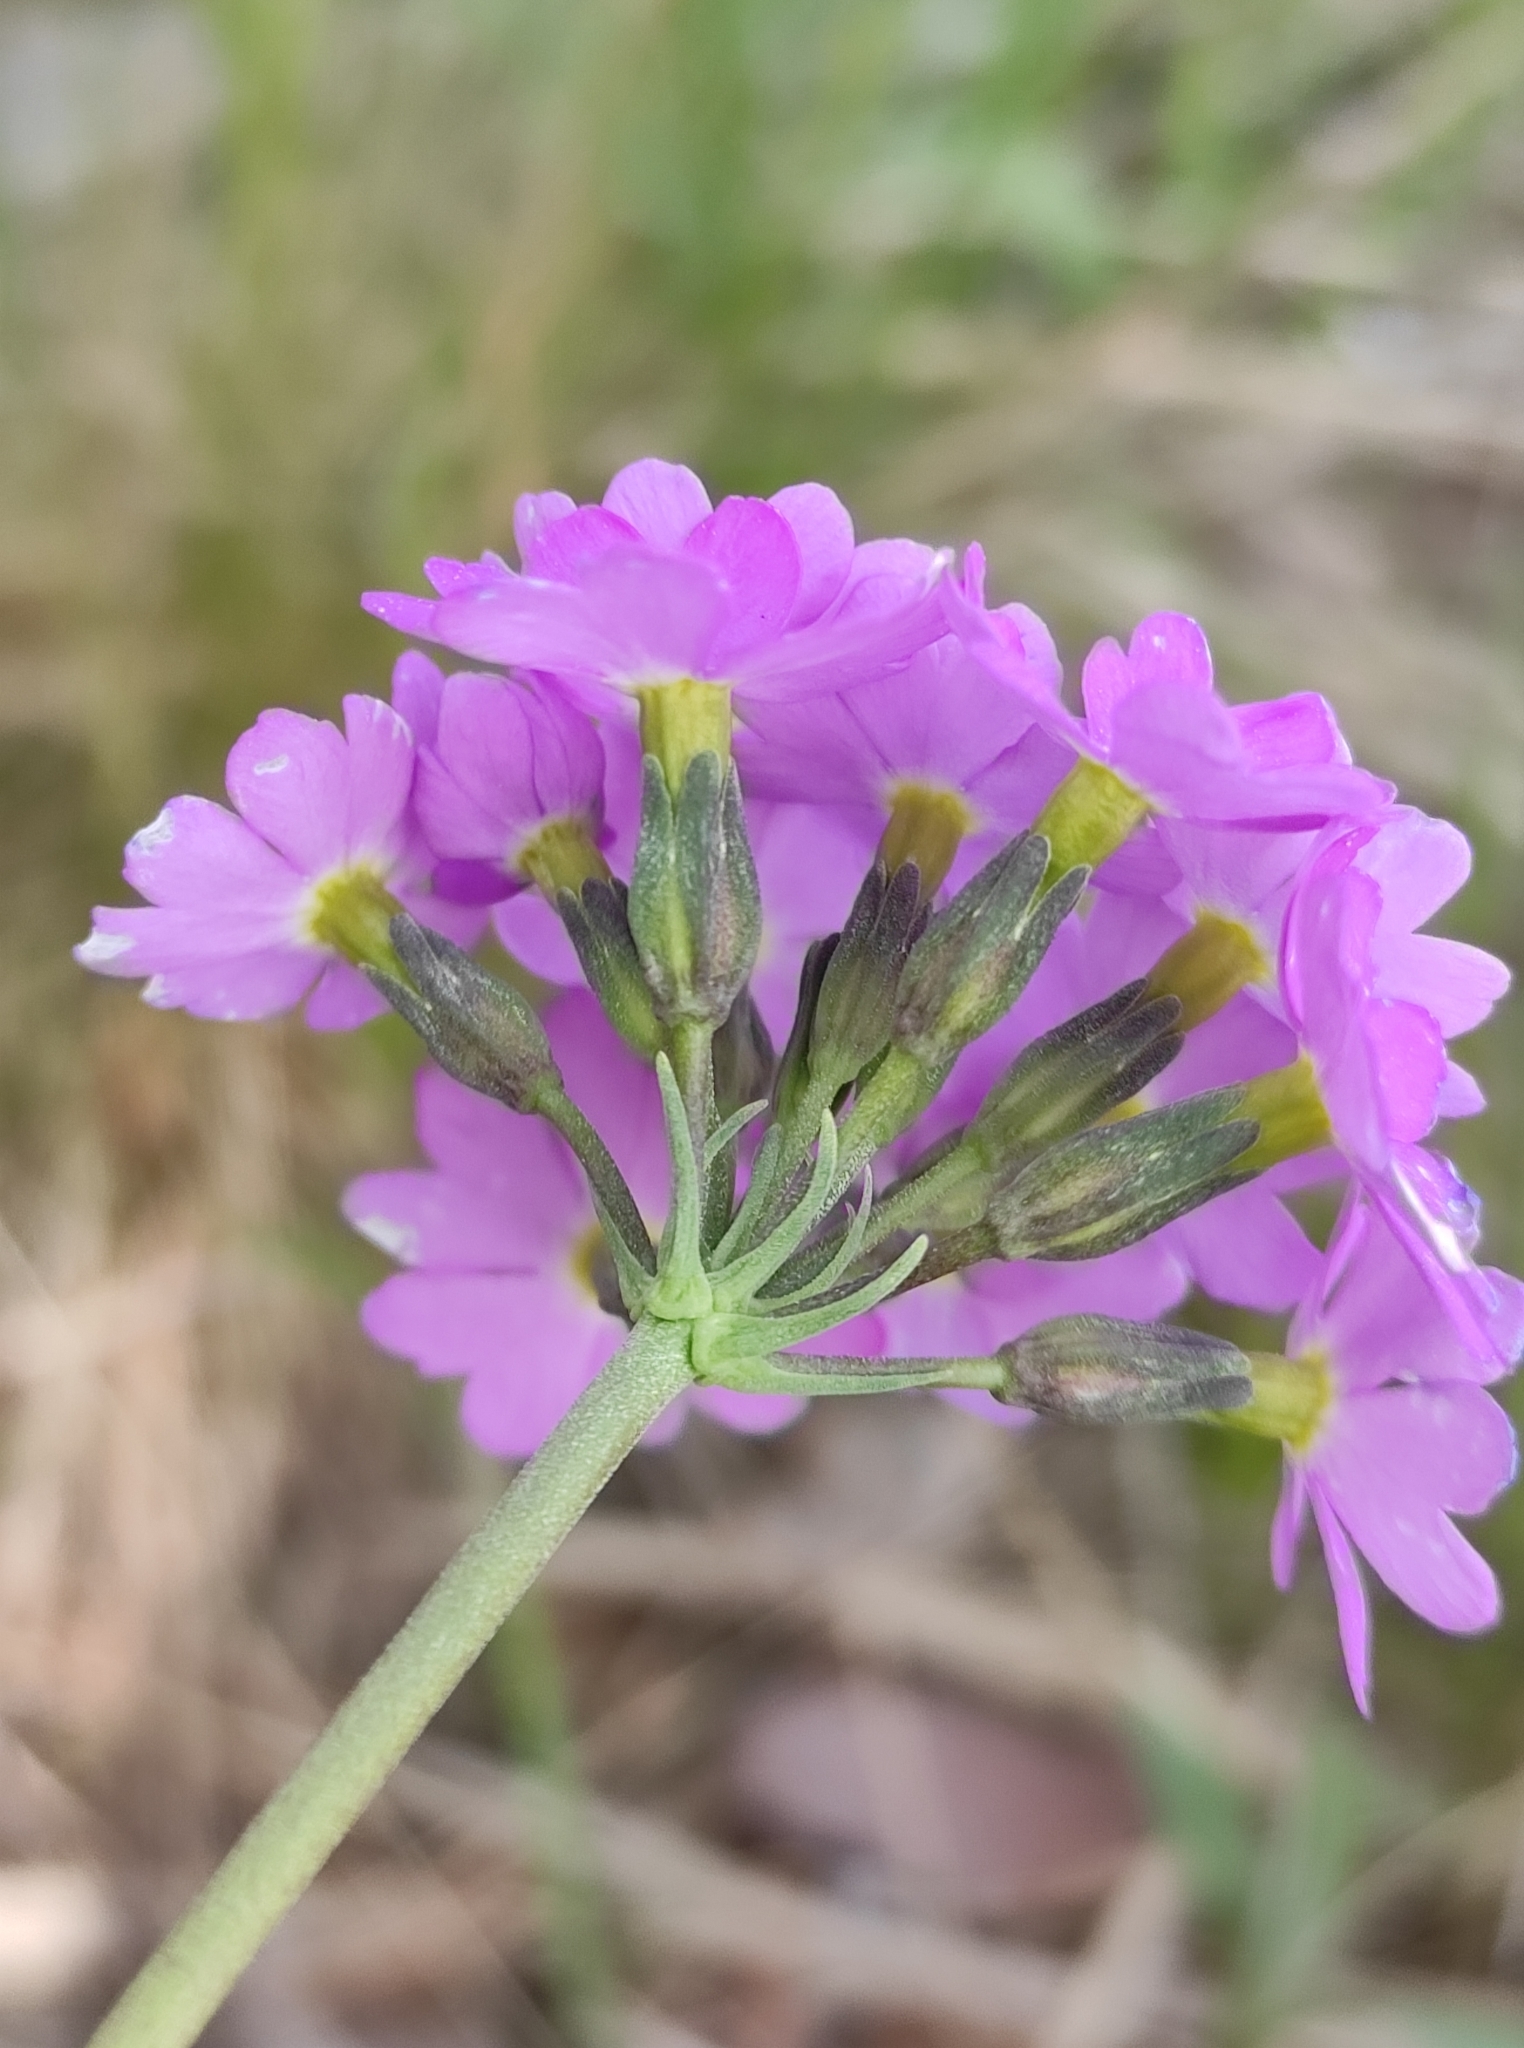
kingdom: Plantae
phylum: Tracheophyta
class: Magnoliopsida
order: Ericales
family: Primulaceae
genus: Primula
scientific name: Primula farinosa
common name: Bird's-eye primrose
